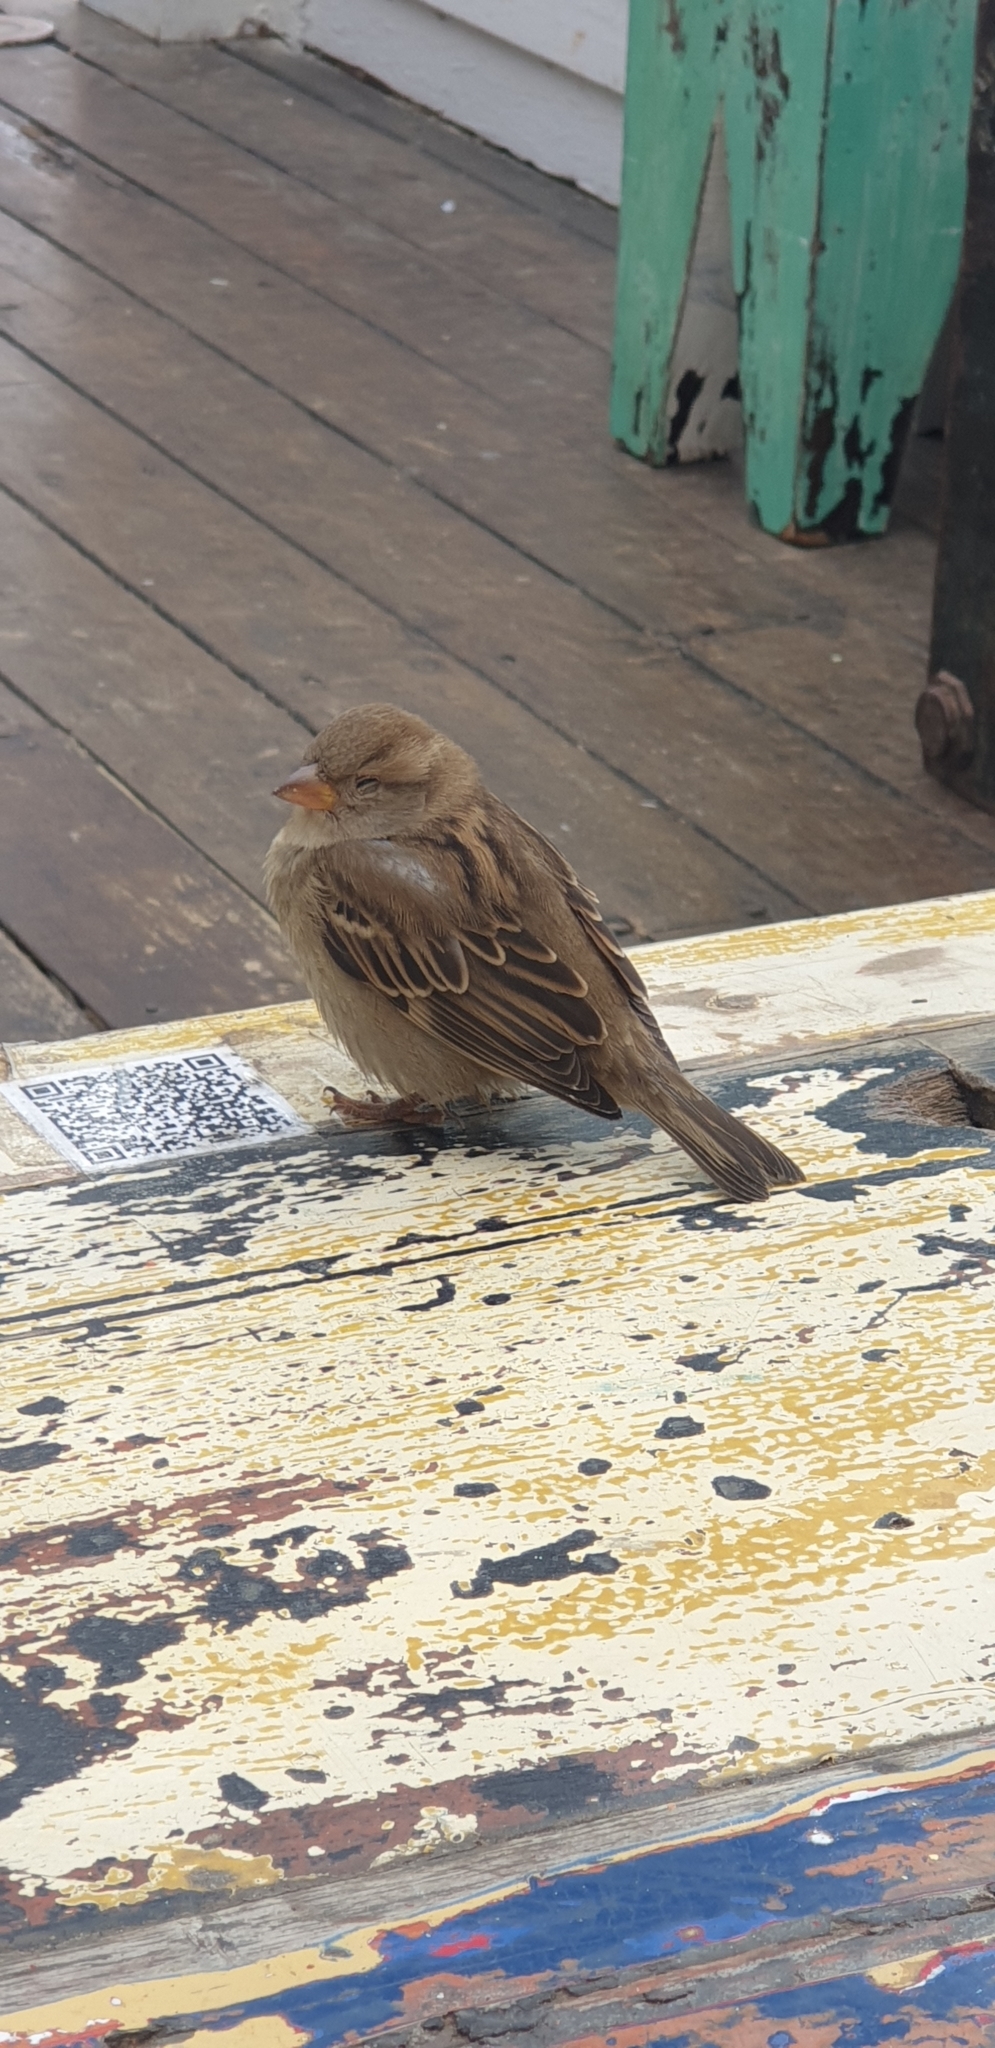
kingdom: Animalia
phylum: Chordata
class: Aves
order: Passeriformes
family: Passeridae
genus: Passer
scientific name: Passer domesticus
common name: House sparrow
